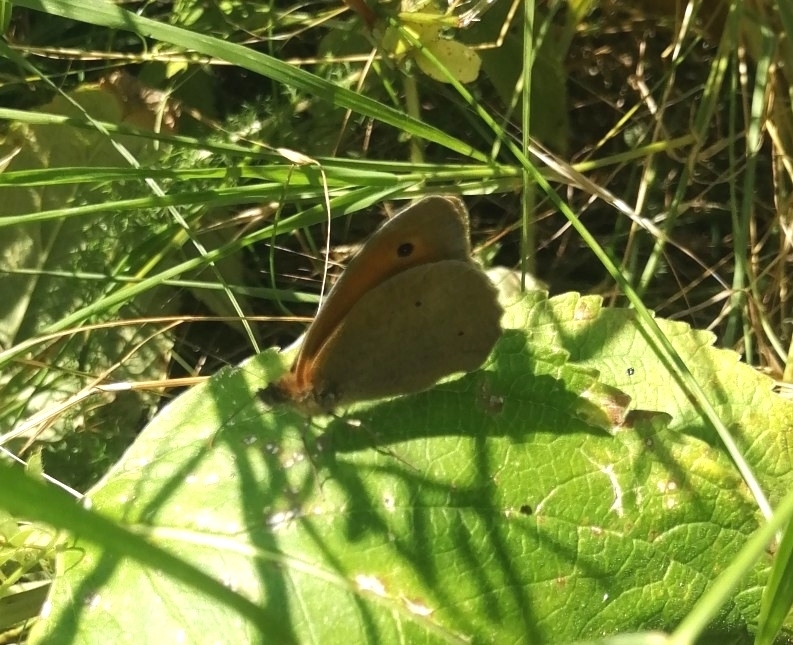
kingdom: Animalia
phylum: Arthropoda
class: Insecta
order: Lepidoptera
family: Nymphalidae
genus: Maniola
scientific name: Maniola jurtina
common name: Meadow brown
